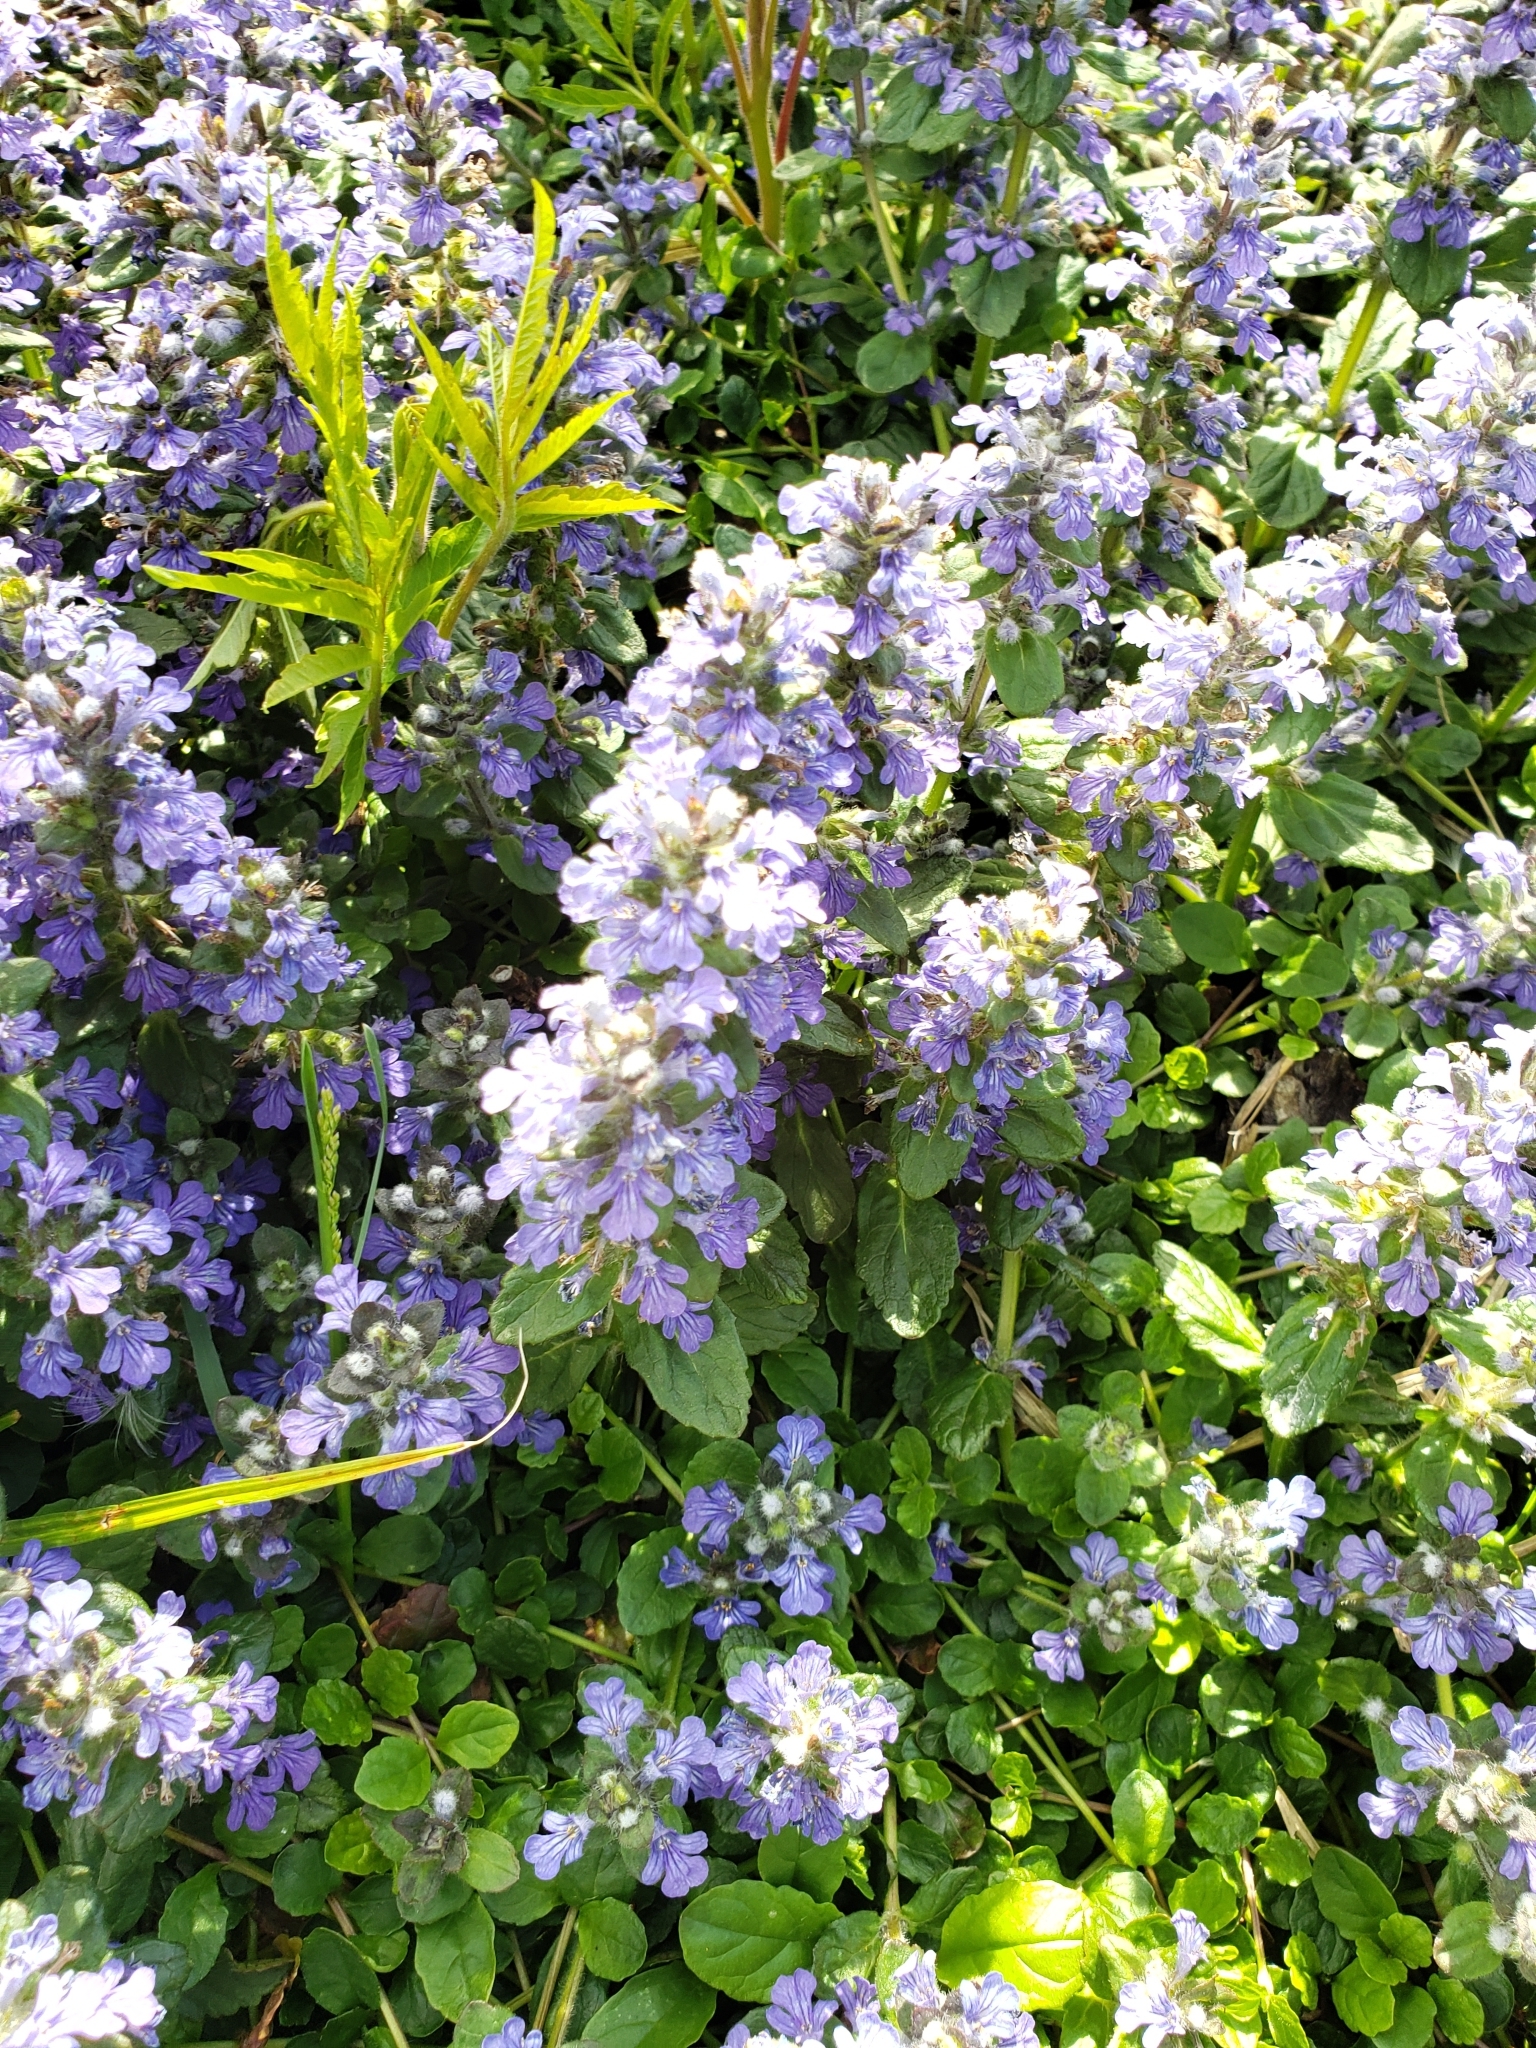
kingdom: Plantae
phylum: Tracheophyta
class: Magnoliopsida
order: Lamiales
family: Lamiaceae
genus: Ajuga
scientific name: Ajuga reptans
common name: Bugle
